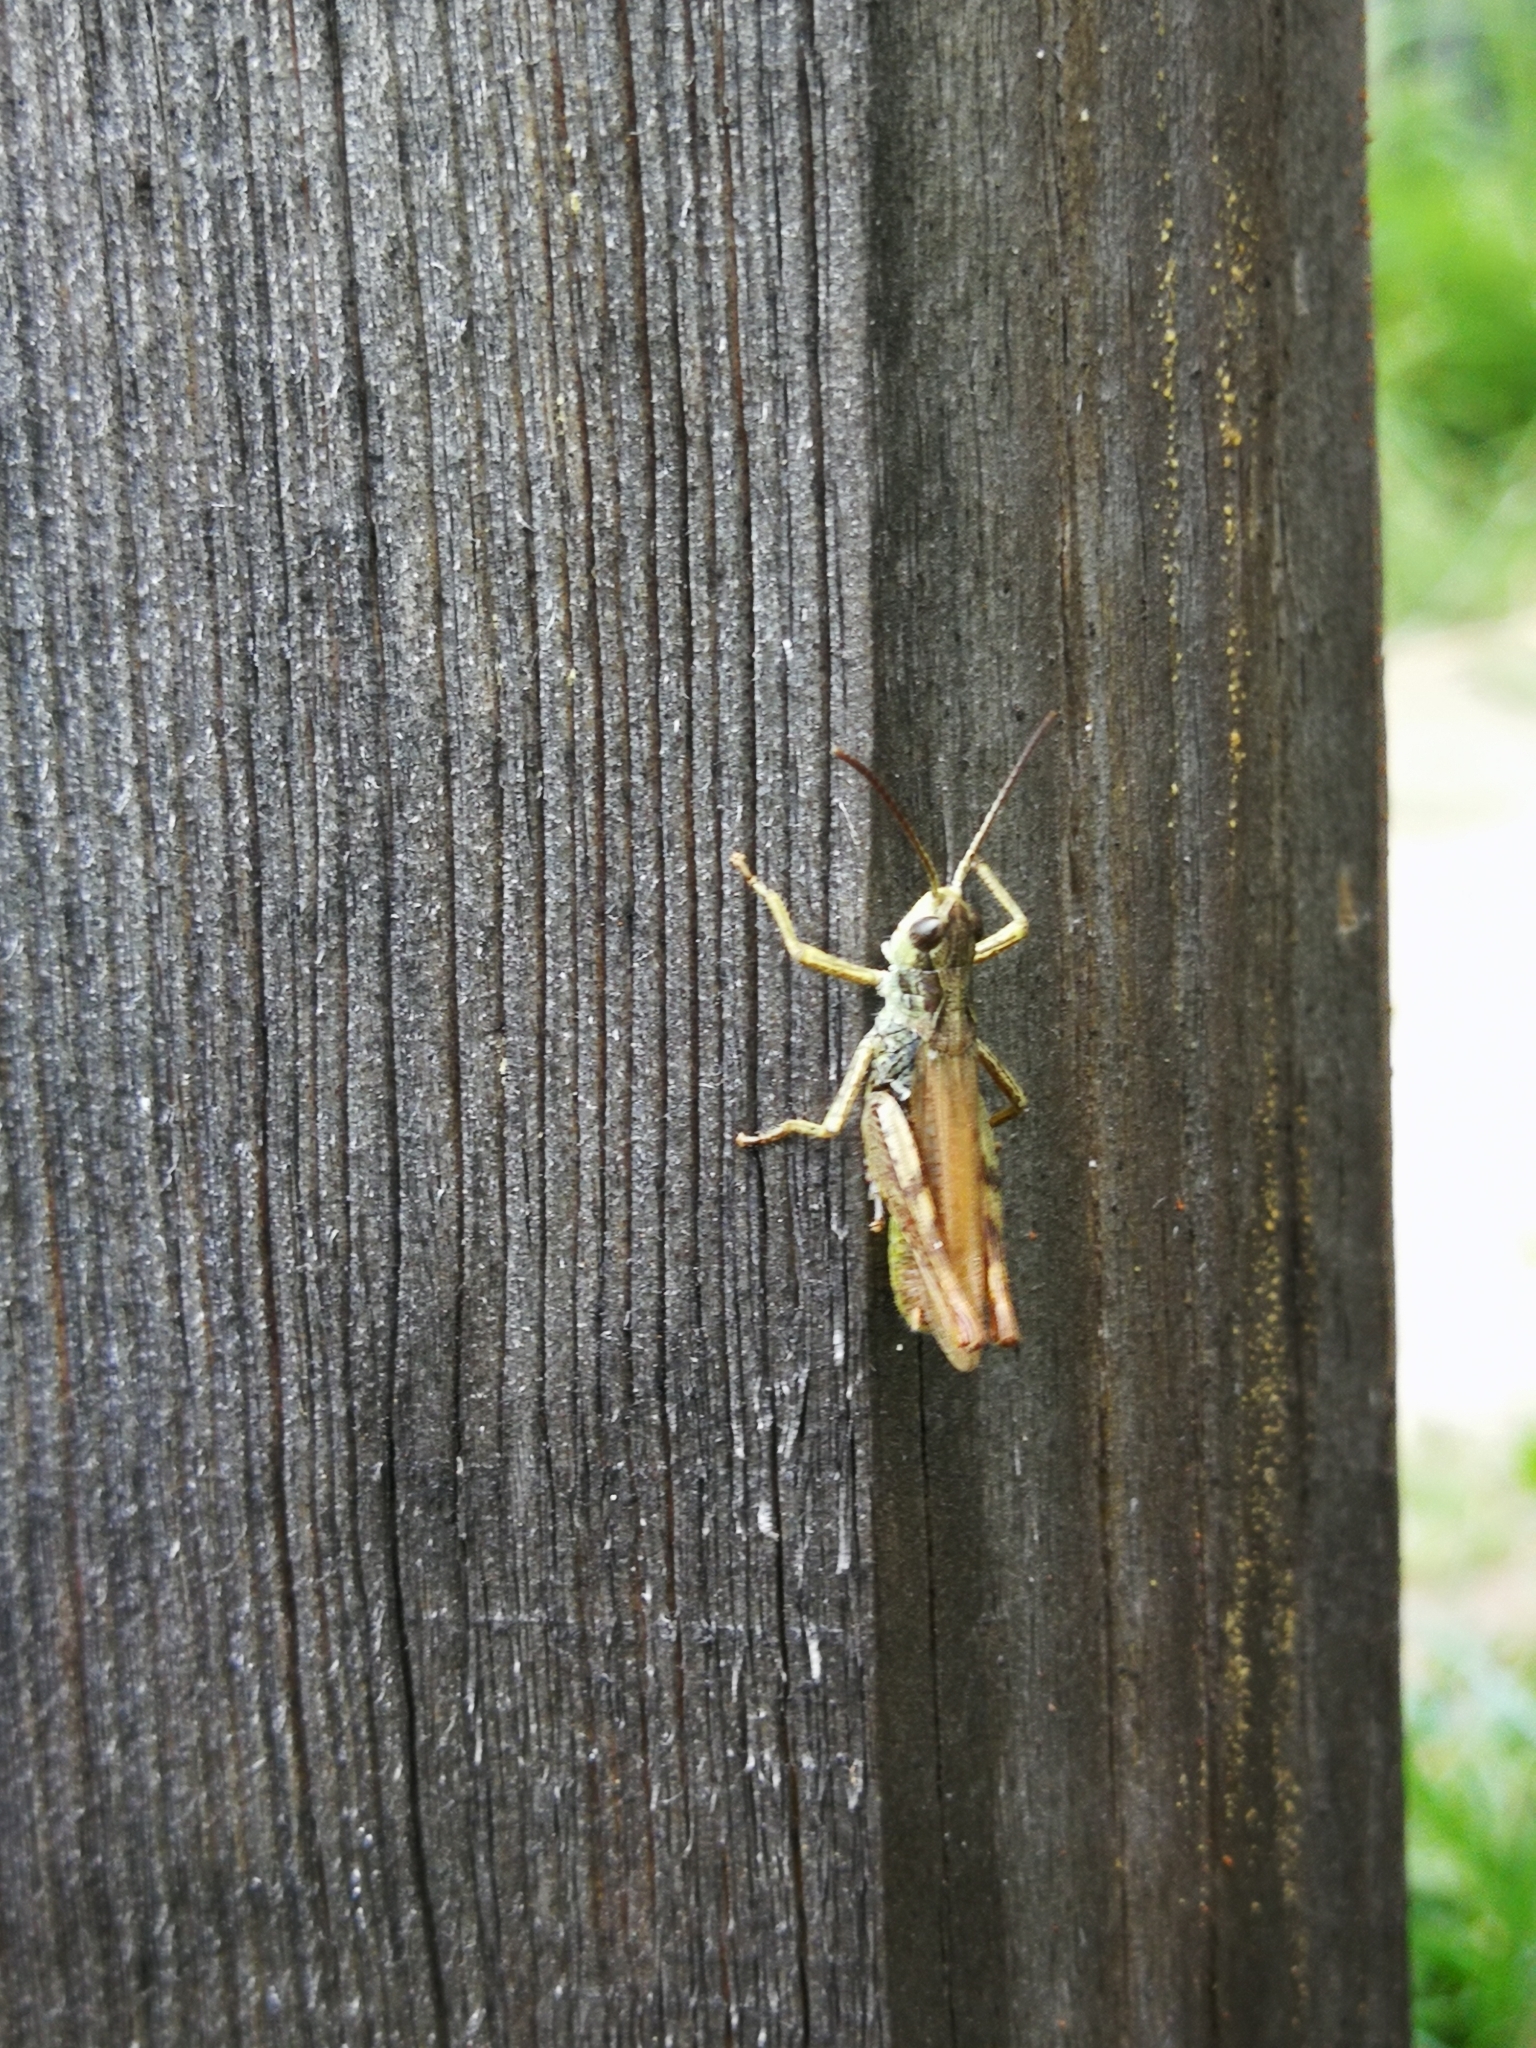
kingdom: Animalia
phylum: Arthropoda
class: Insecta
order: Orthoptera
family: Acrididae
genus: Chorthippus
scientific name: Chorthippus apricarius
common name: Upland field grasshopper
